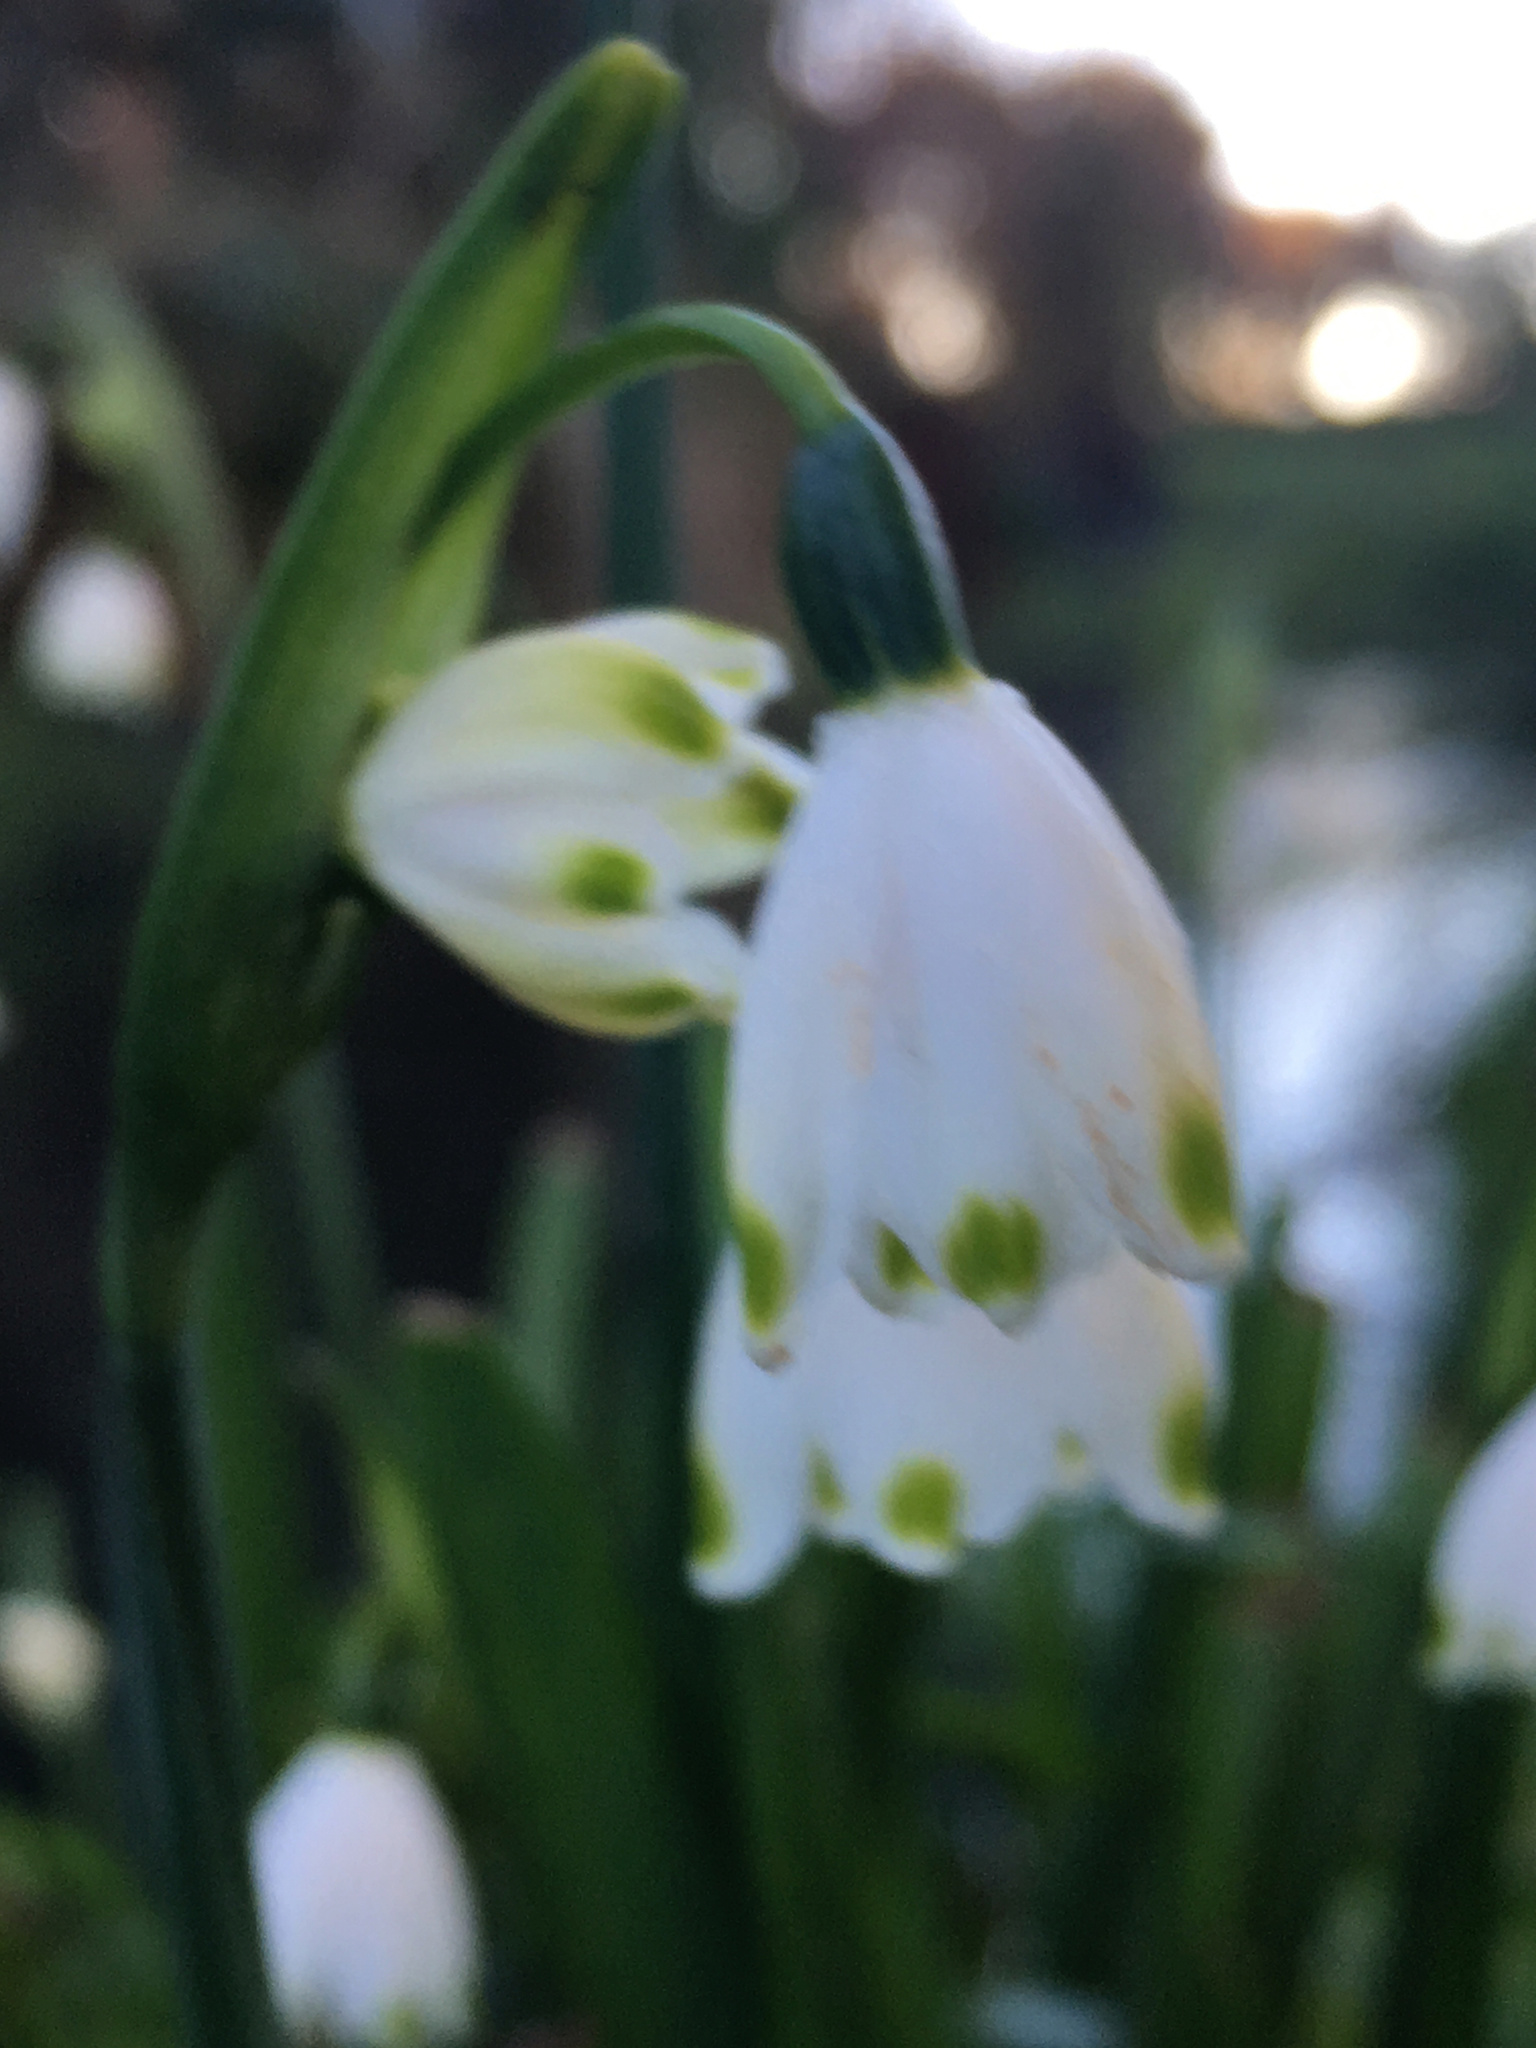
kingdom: Plantae
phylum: Tracheophyta
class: Liliopsida
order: Asparagales
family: Amaryllidaceae
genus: Leucojum
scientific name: Leucojum aestivum
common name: Summer snowflake
